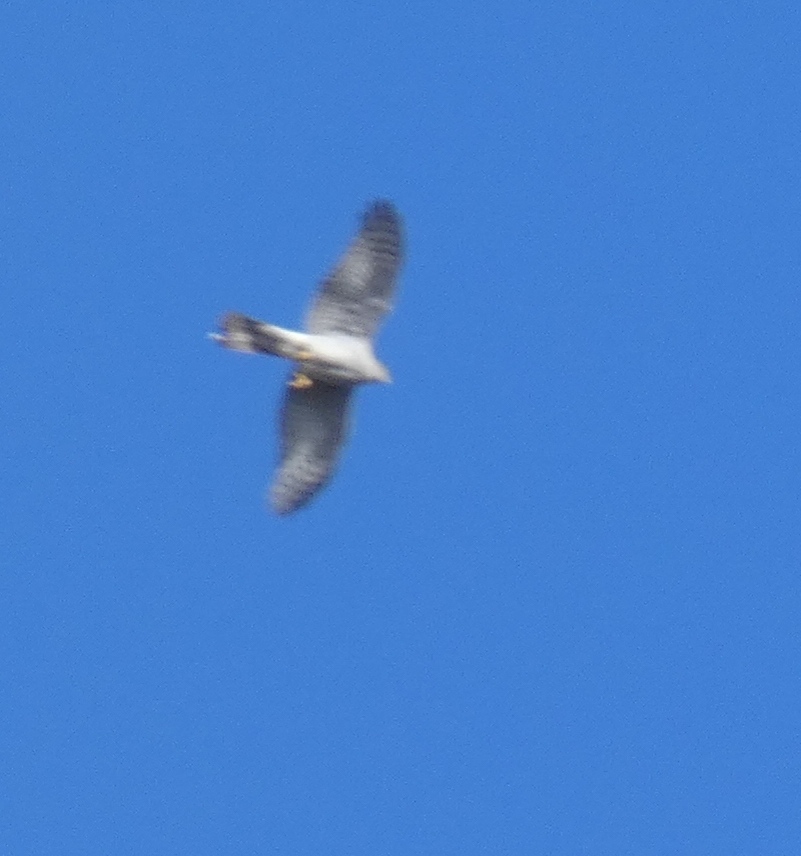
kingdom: Animalia
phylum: Chordata
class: Aves
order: Accipitriformes
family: Accipitridae
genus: Accipiter
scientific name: Accipiter gentilis
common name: Northern goshawk
